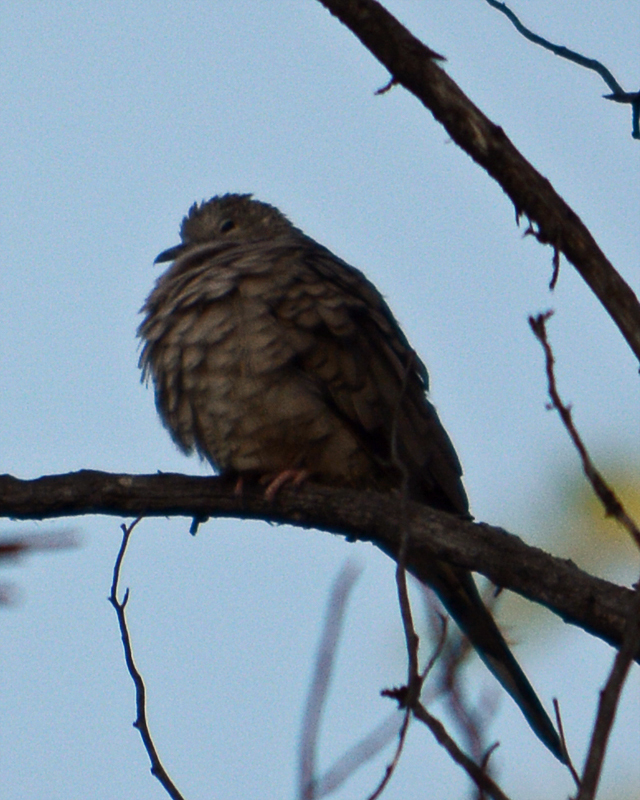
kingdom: Animalia
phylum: Chordata
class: Aves
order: Columbiformes
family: Columbidae
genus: Columbina
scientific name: Columbina inca
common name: Inca dove
